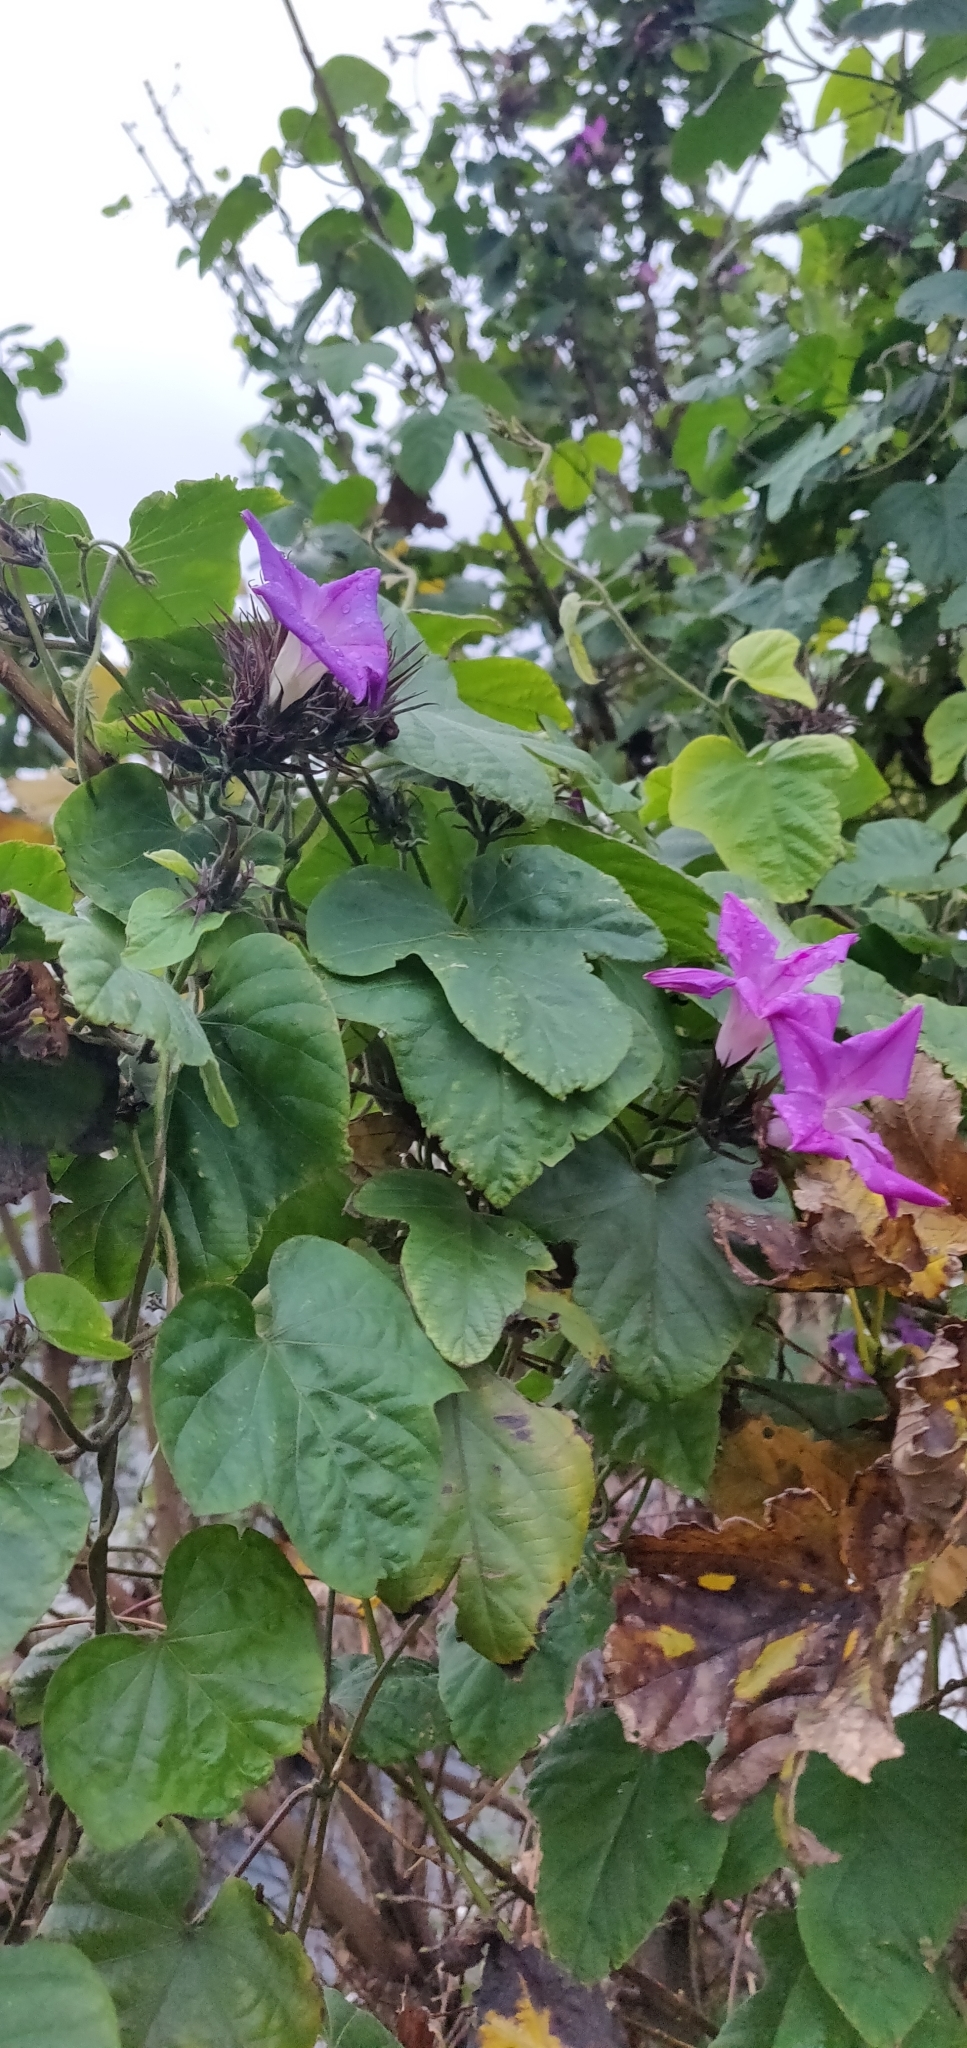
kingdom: Plantae
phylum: Tracheophyta
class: Magnoliopsida
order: Solanales
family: Convolvulaceae
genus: Ipomoea
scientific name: Ipomoea indica
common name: Blue dawnflower
